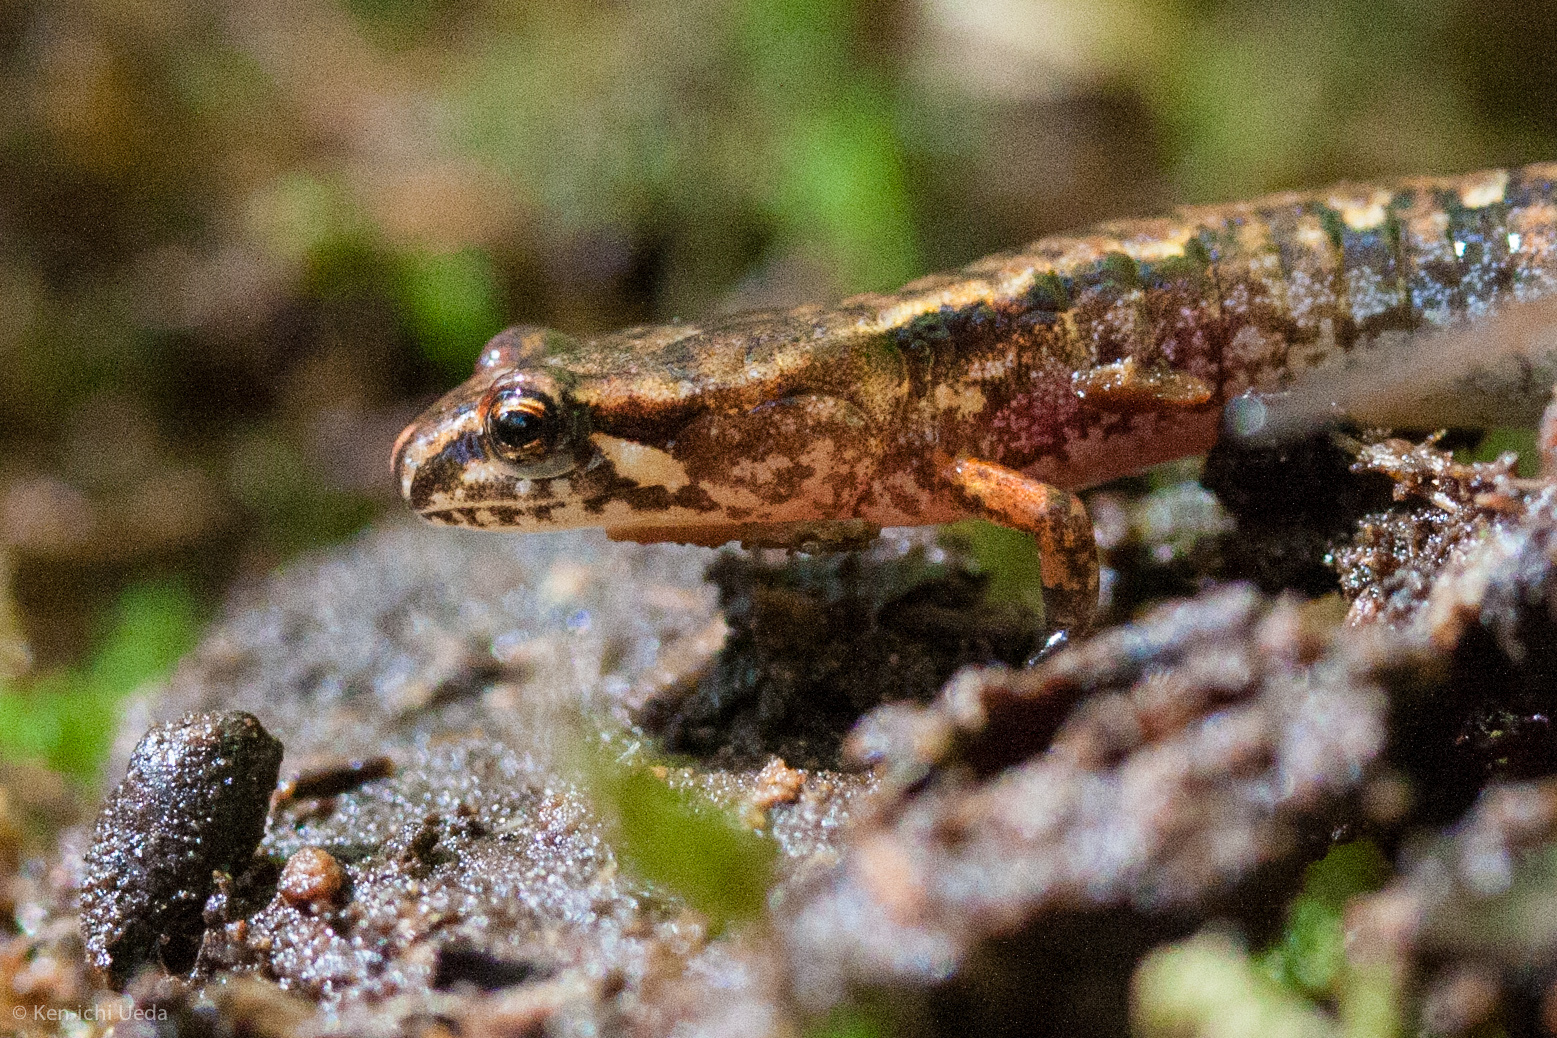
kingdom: Animalia
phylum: Chordata
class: Amphibia
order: Caudata
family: Plethodontidae
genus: Desmognathus
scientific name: Desmognathus wrighti
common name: Pygmy salamander
